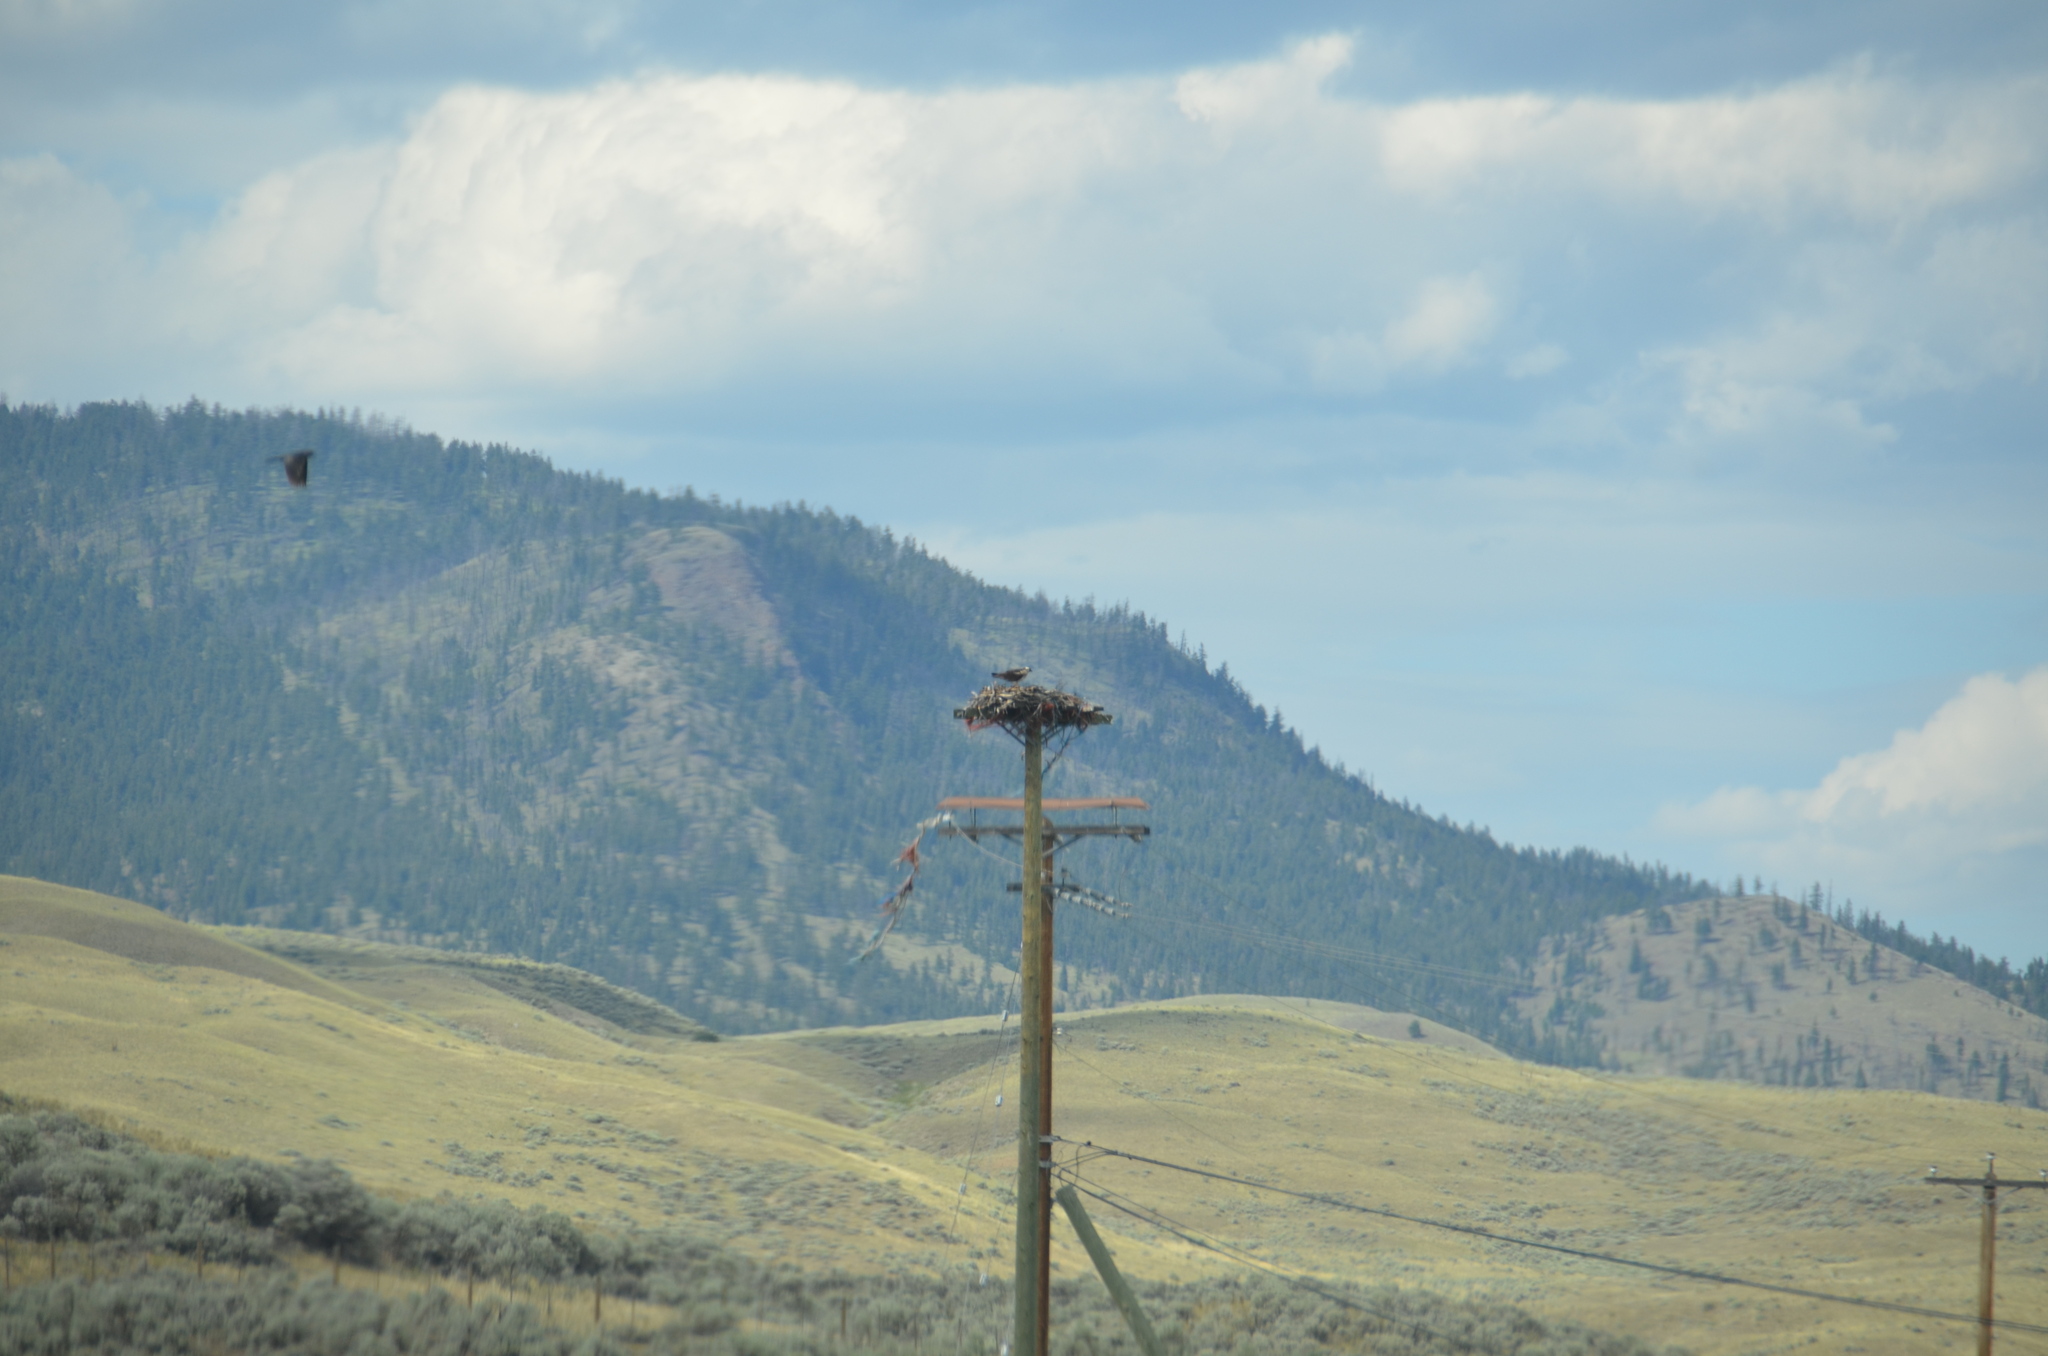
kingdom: Animalia
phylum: Chordata
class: Aves
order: Accipitriformes
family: Pandionidae
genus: Pandion
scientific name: Pandion haliaetus
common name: Osprey
